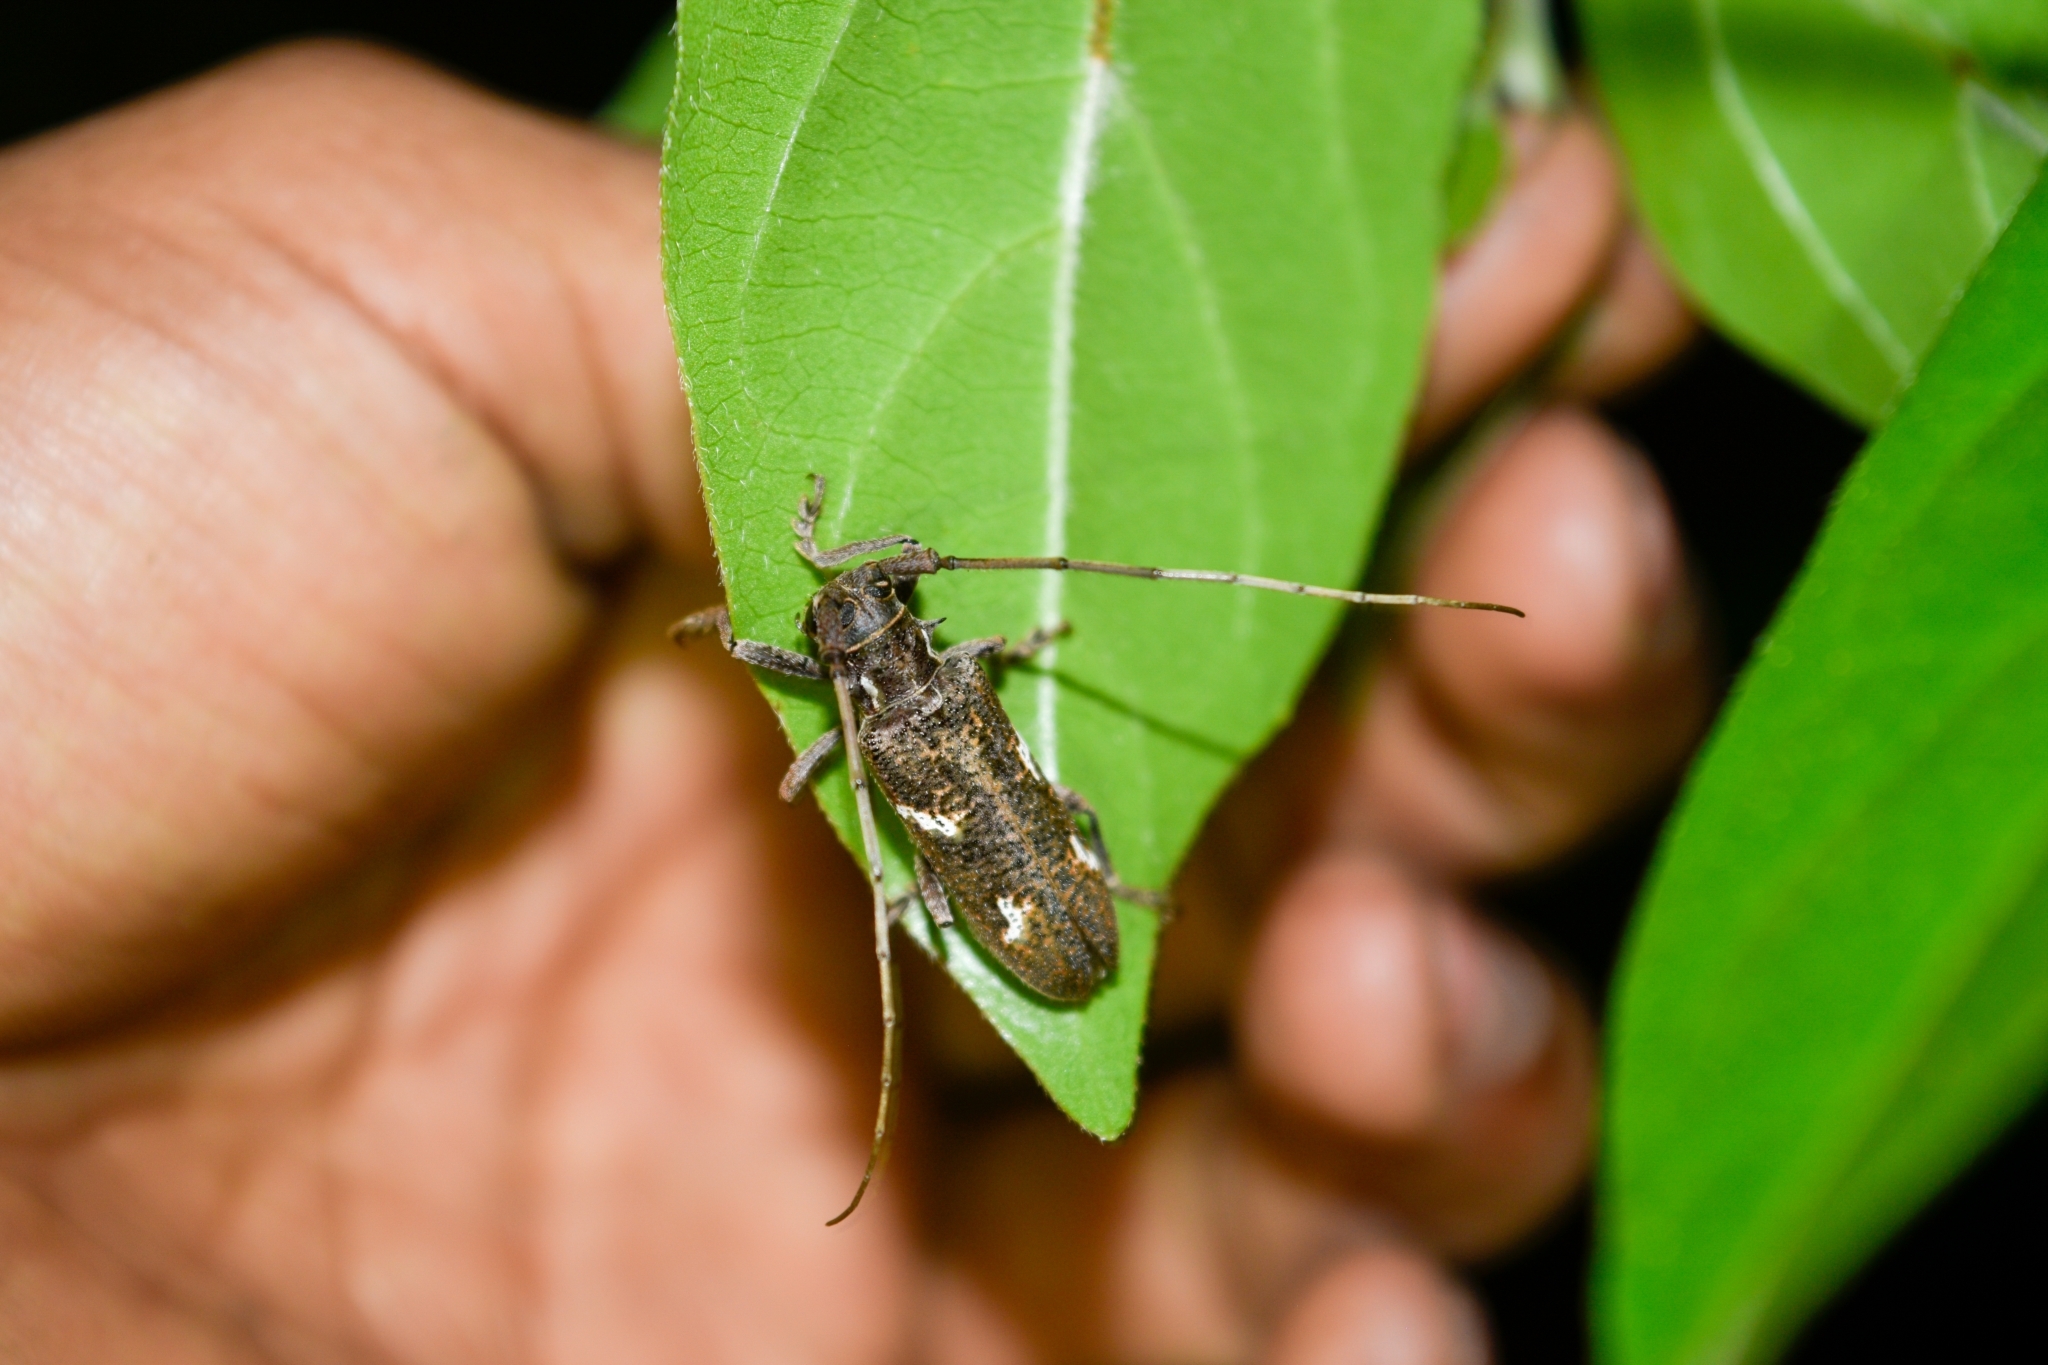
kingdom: Animalia
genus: Hammatoderus
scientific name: Hammatoderus
